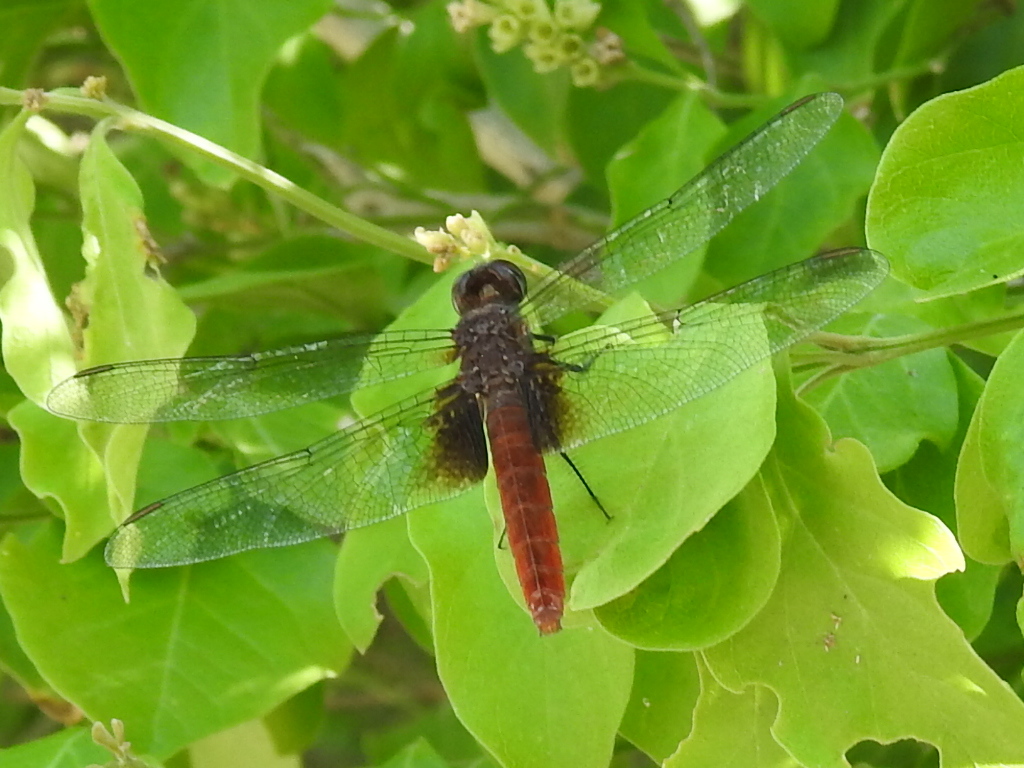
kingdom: Animalia
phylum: Arthropoda
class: Insecta
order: Odonata
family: Libellulidae
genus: Planiplax
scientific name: Planiplax sanguiniventris
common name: Mexican scarlet-tail
